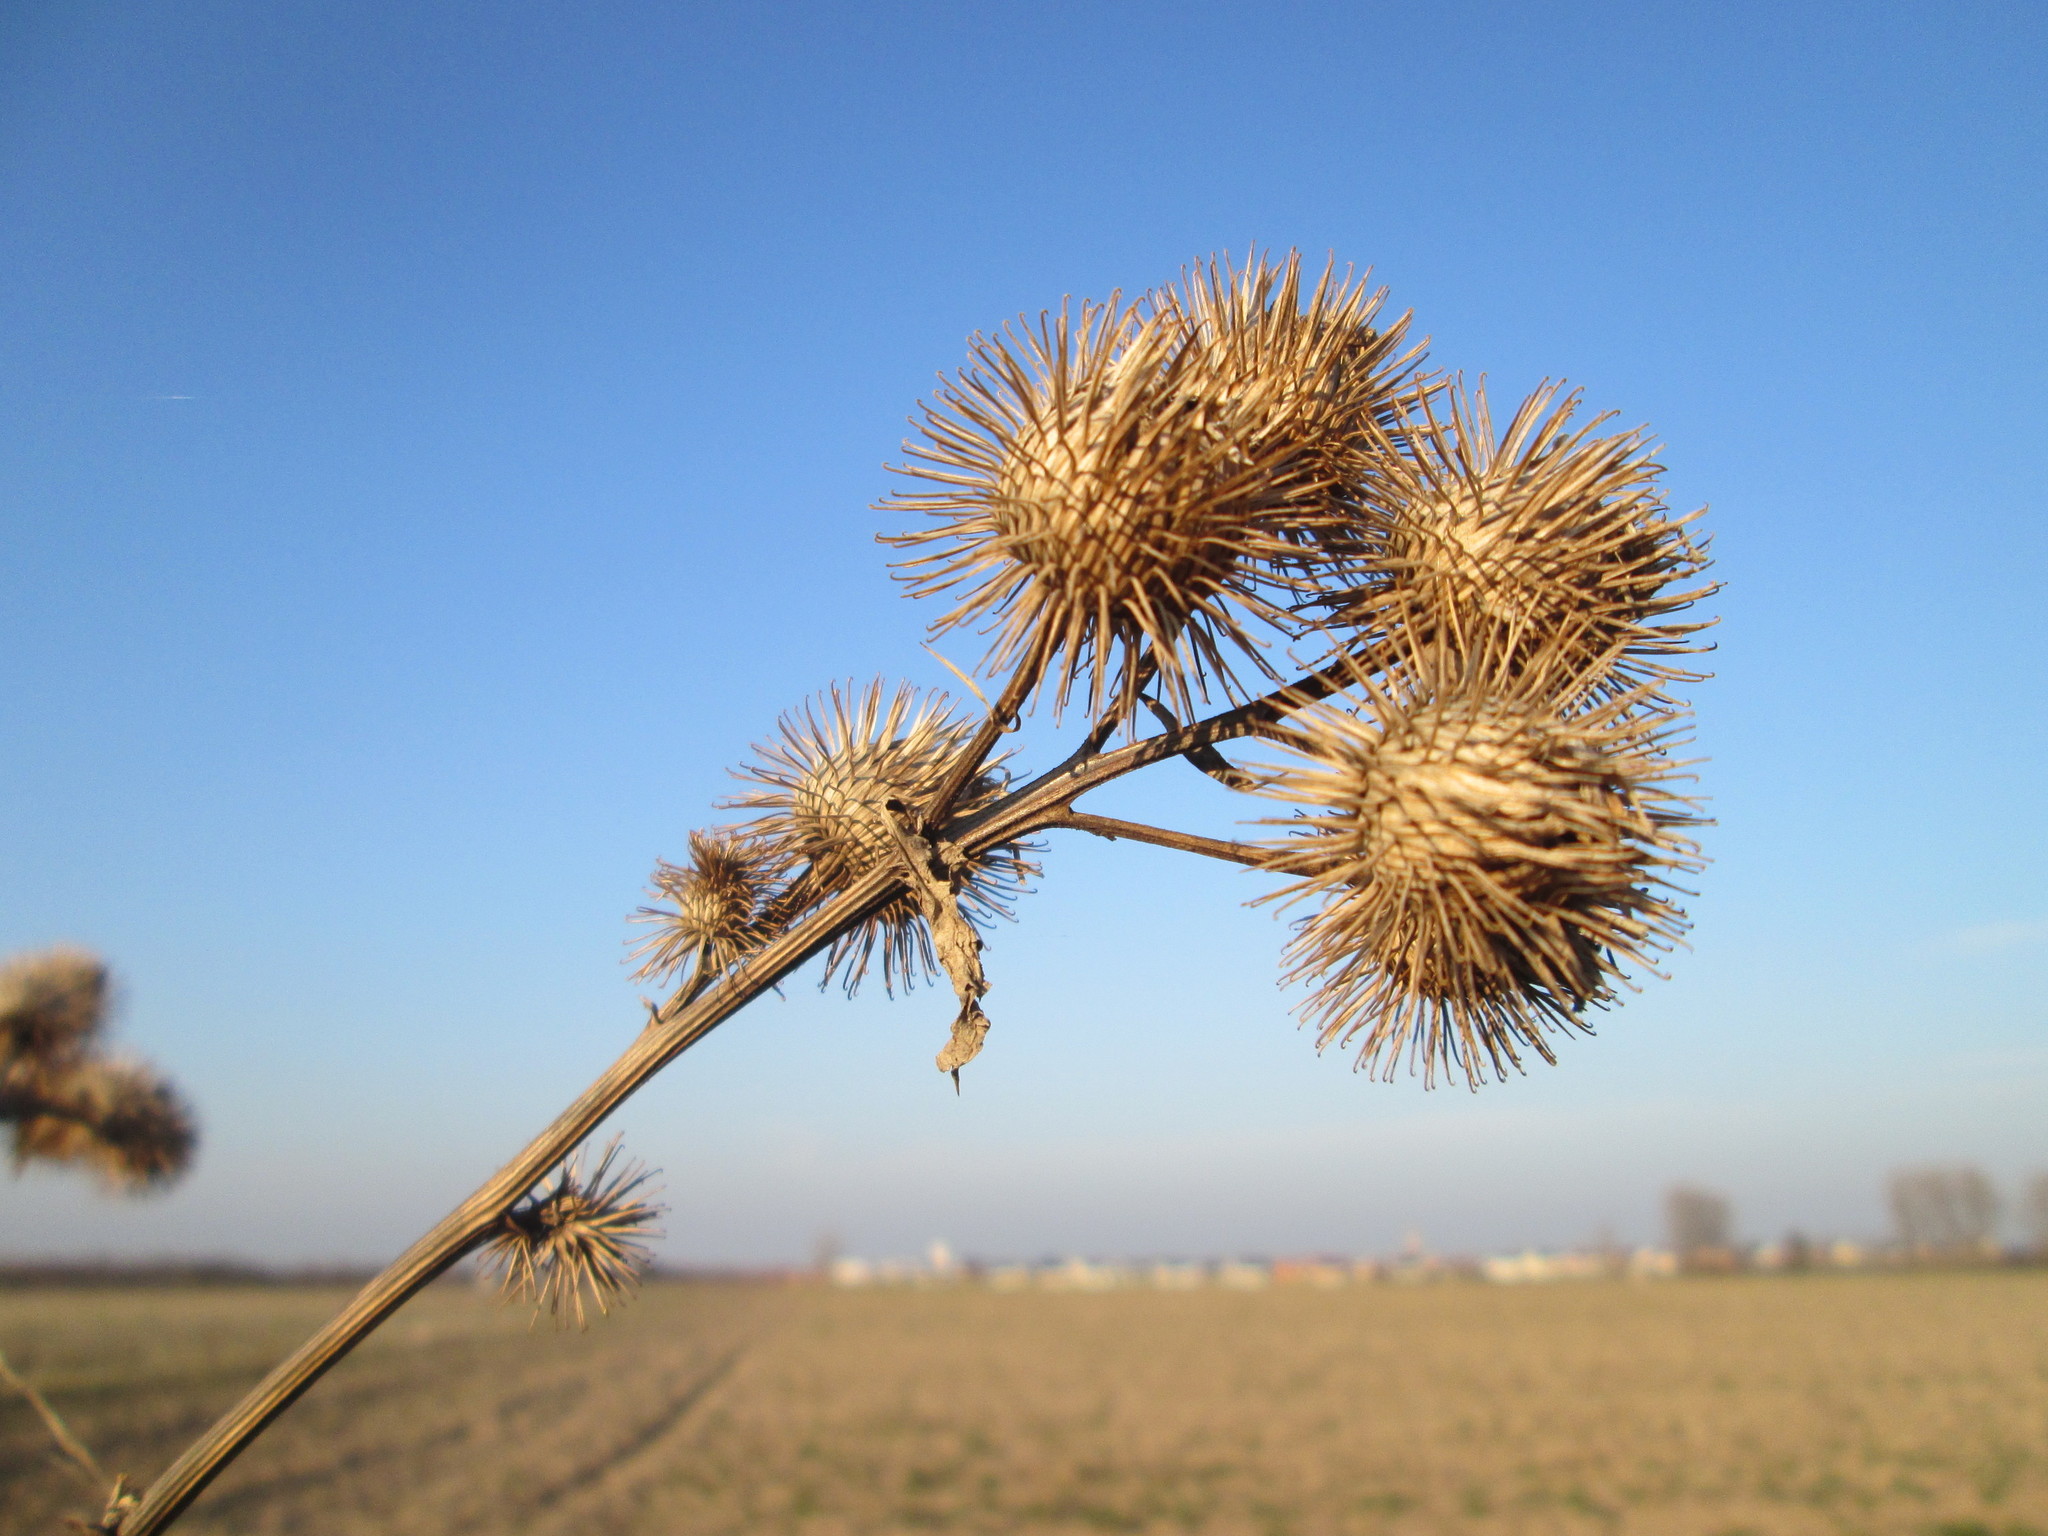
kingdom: Plantae
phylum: Tracheophyta
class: Magnoliopsida
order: Asterales
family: Asteraceae
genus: Arctium
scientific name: Arctium lappa
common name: Greater burdock
